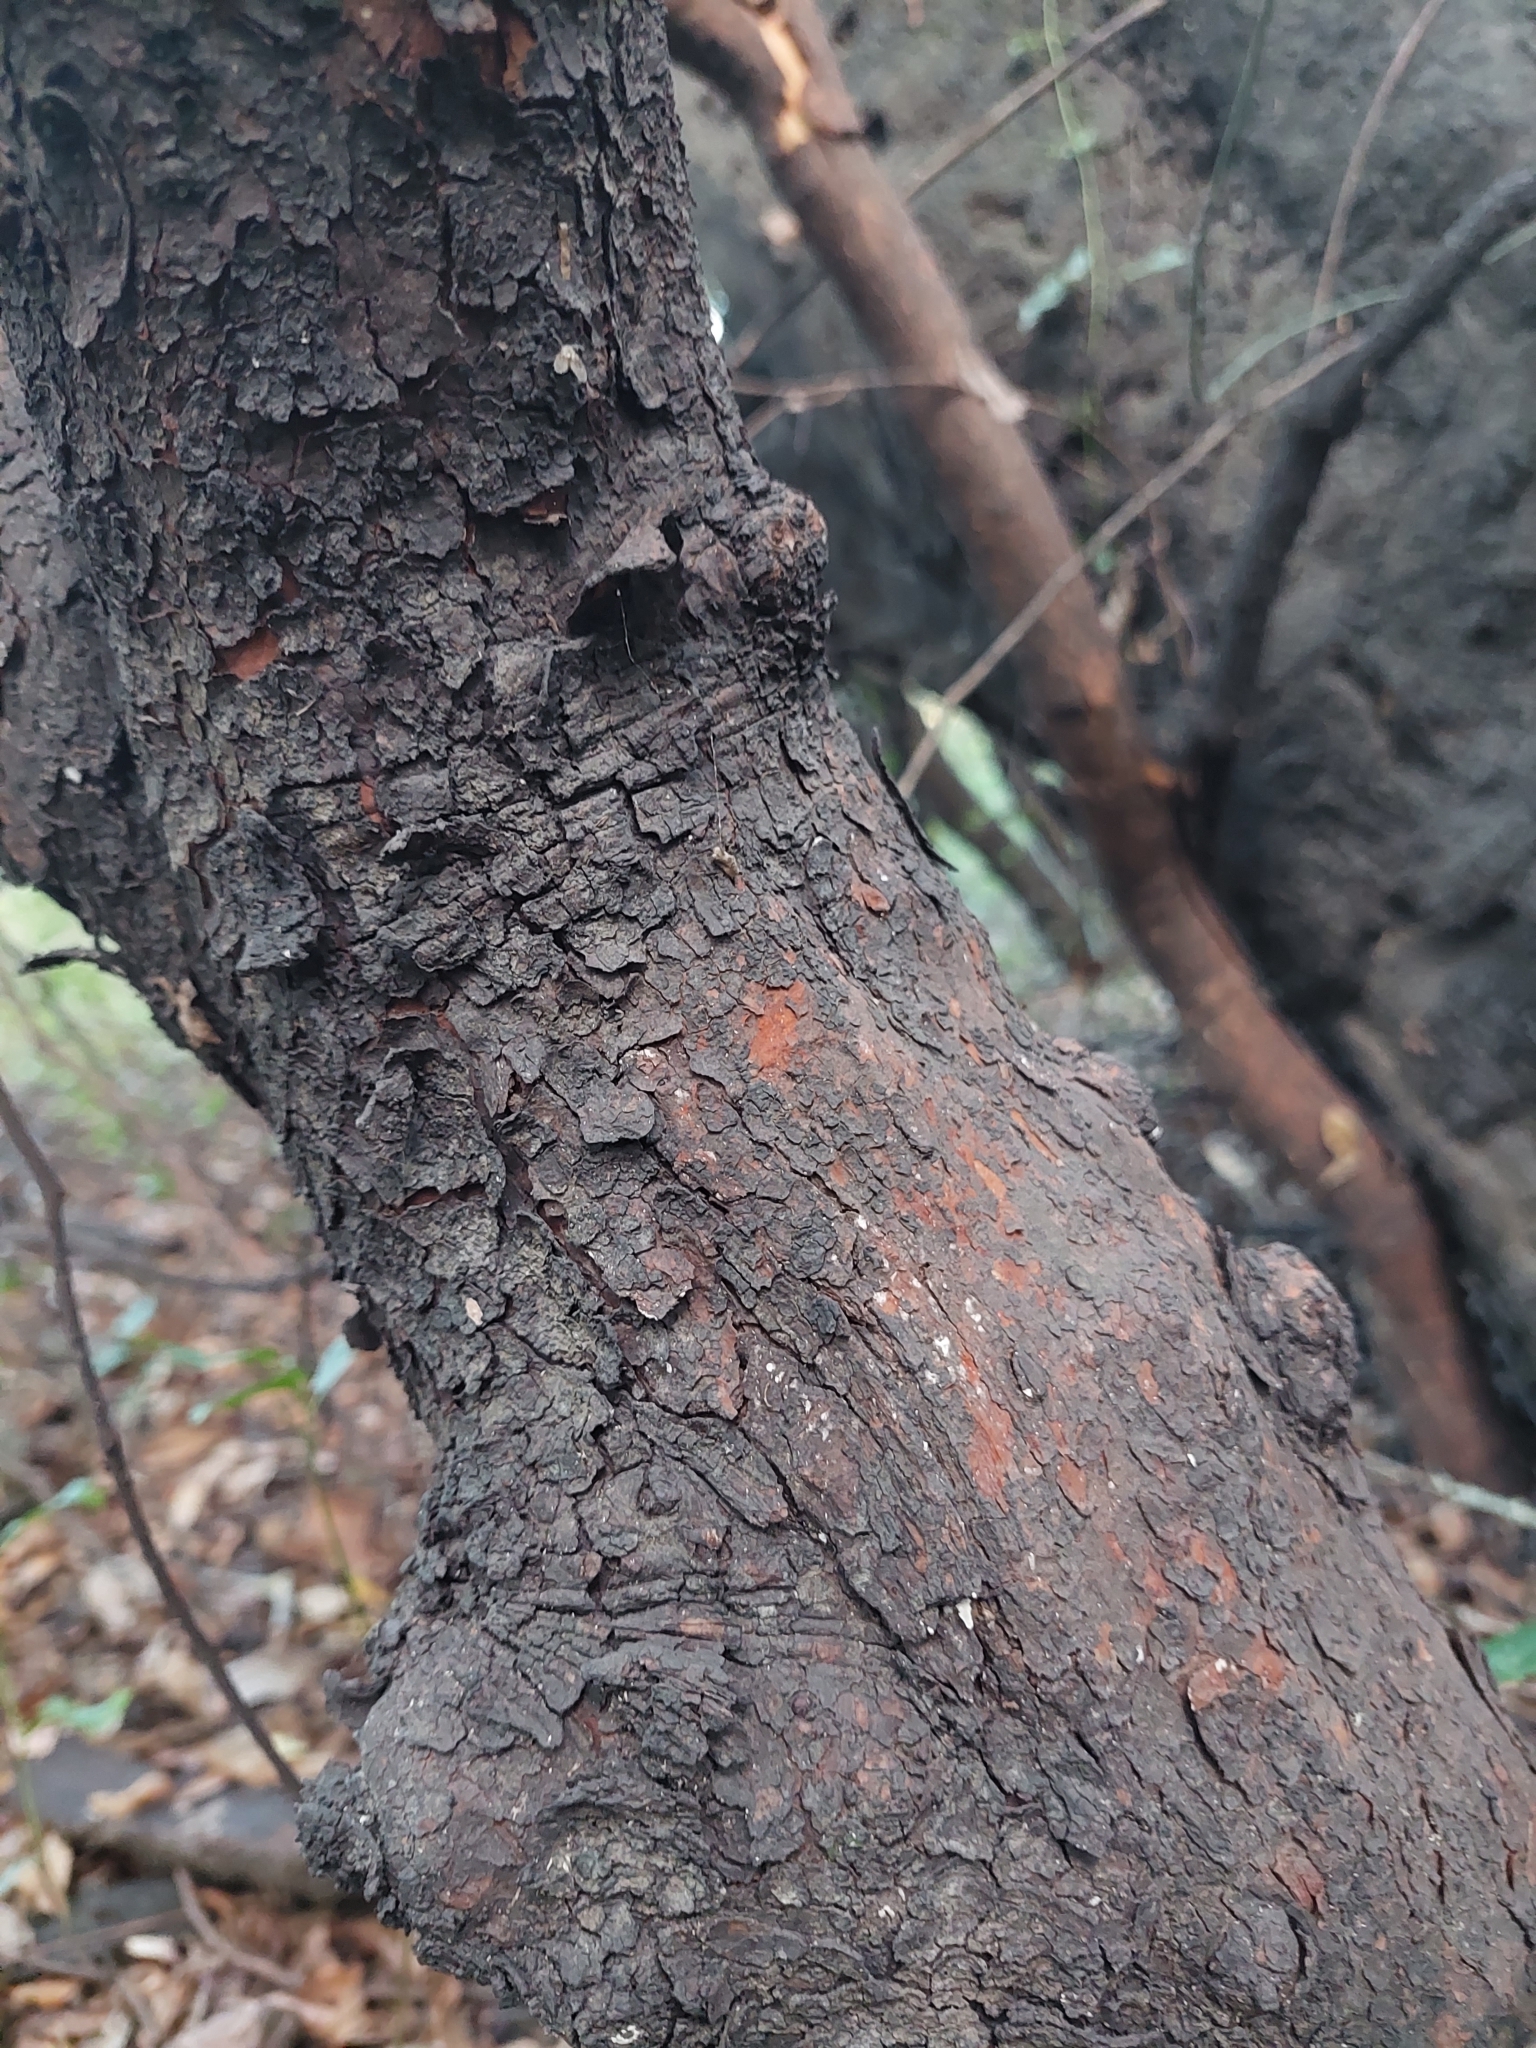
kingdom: Plantae
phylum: Tracheophyta
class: Magnoliopsida
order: Sapindales
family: Sapindaceae
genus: Allophylus
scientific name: Allophylus edulis
